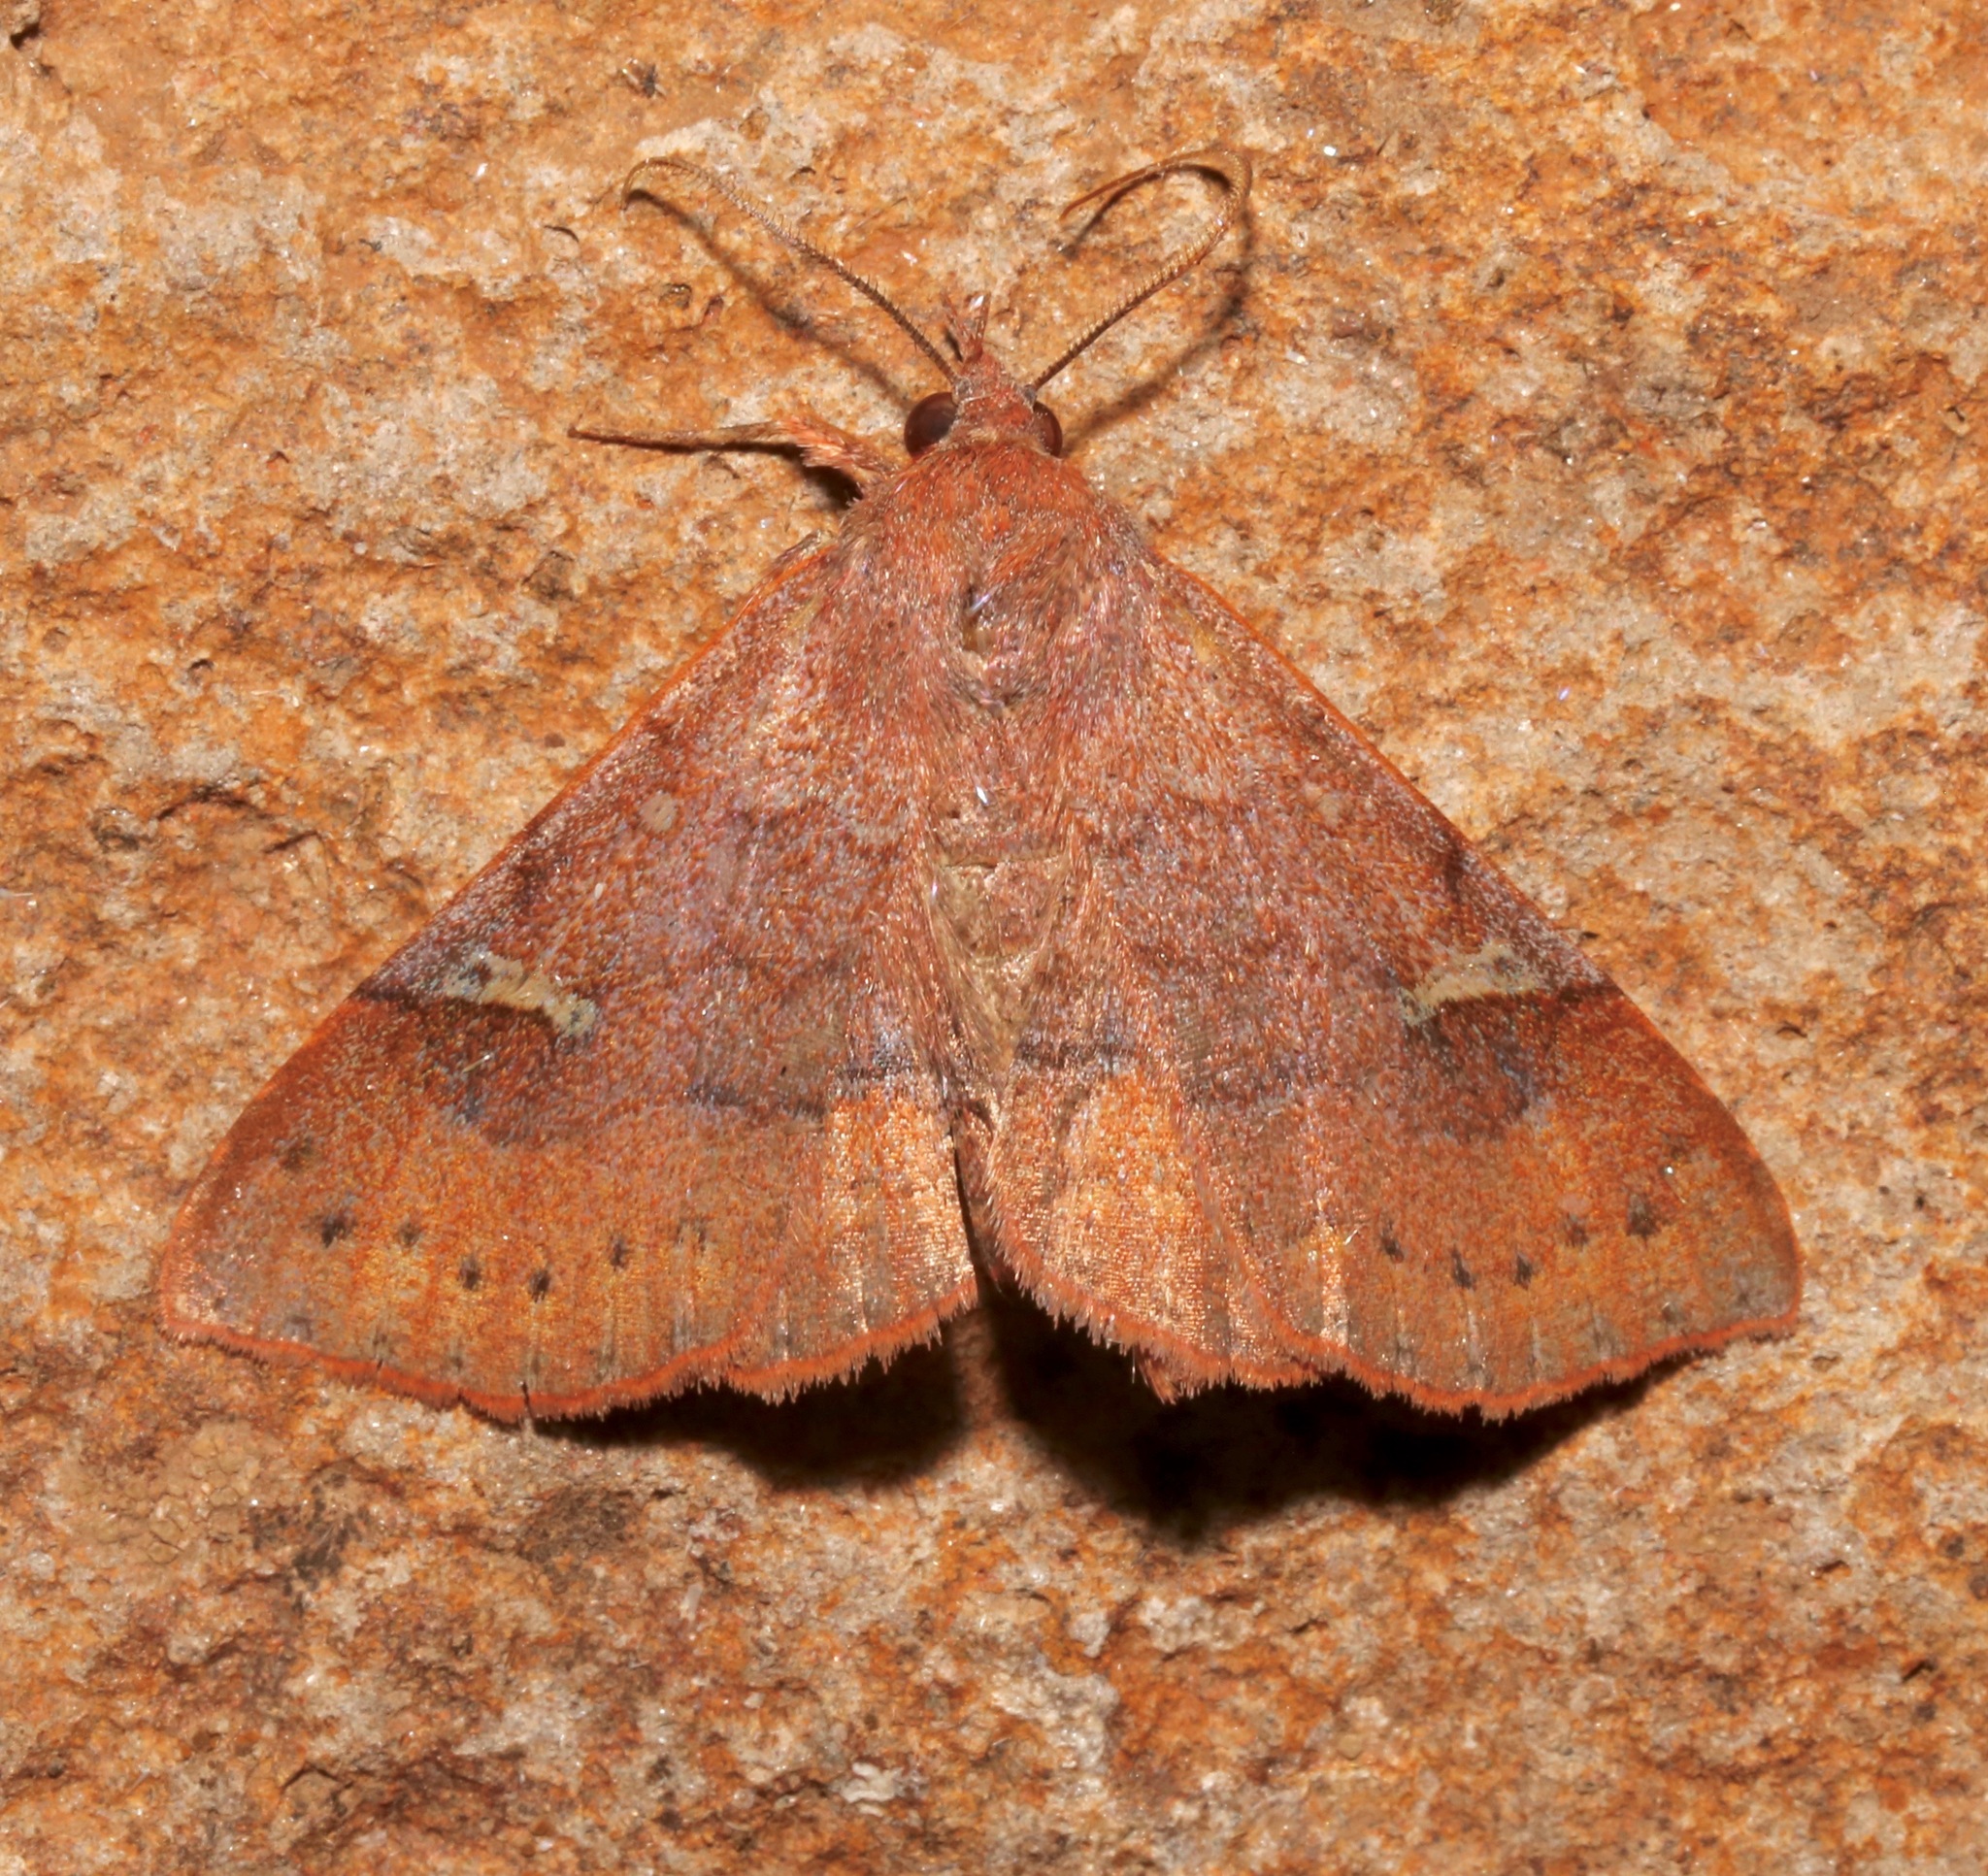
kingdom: Animalia
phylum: Arthropoda
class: Insecta
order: Lepidoptera
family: Erebidae
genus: Azeta
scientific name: Azeta schausi
